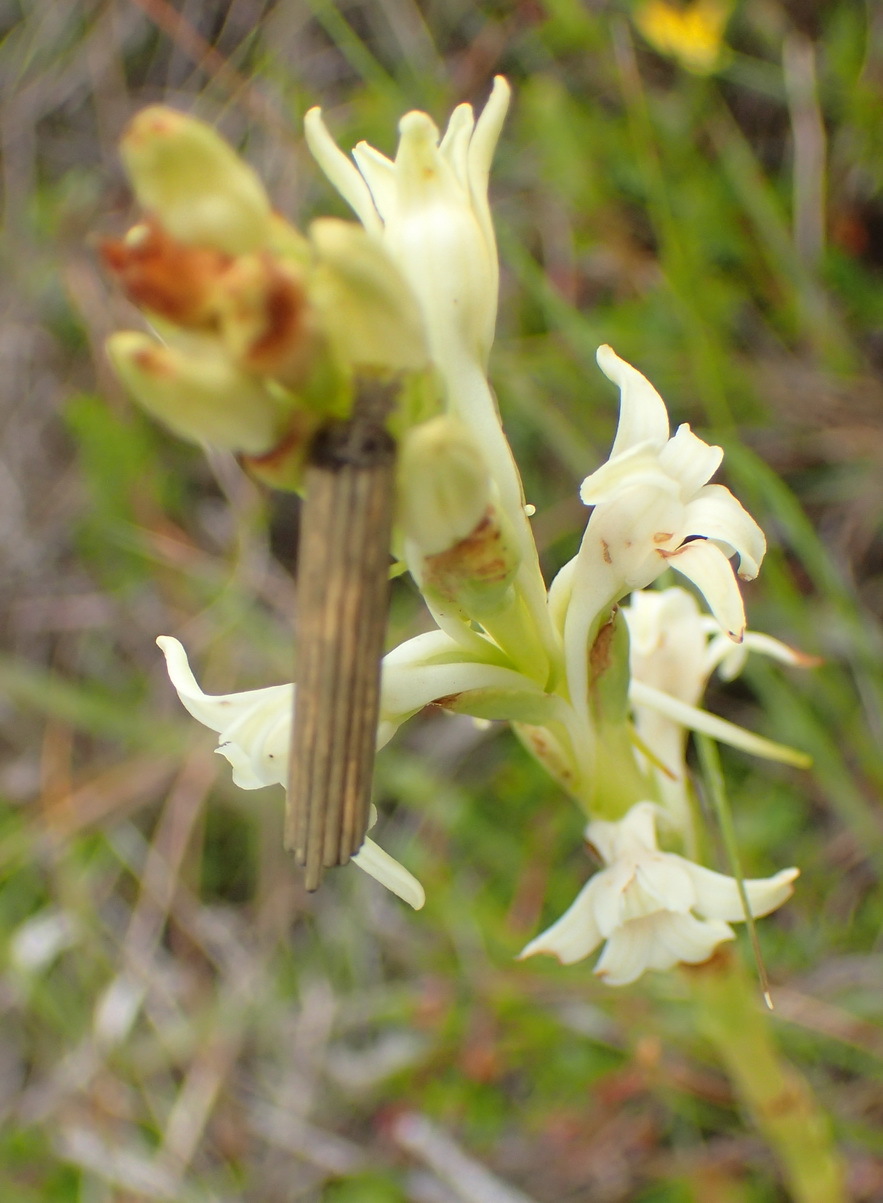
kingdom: Plantae
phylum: Tracheophyta
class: Liliopsida
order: Asparagales
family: Orchidaceae
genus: Satyrium
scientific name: Satyrium stenopetalum
